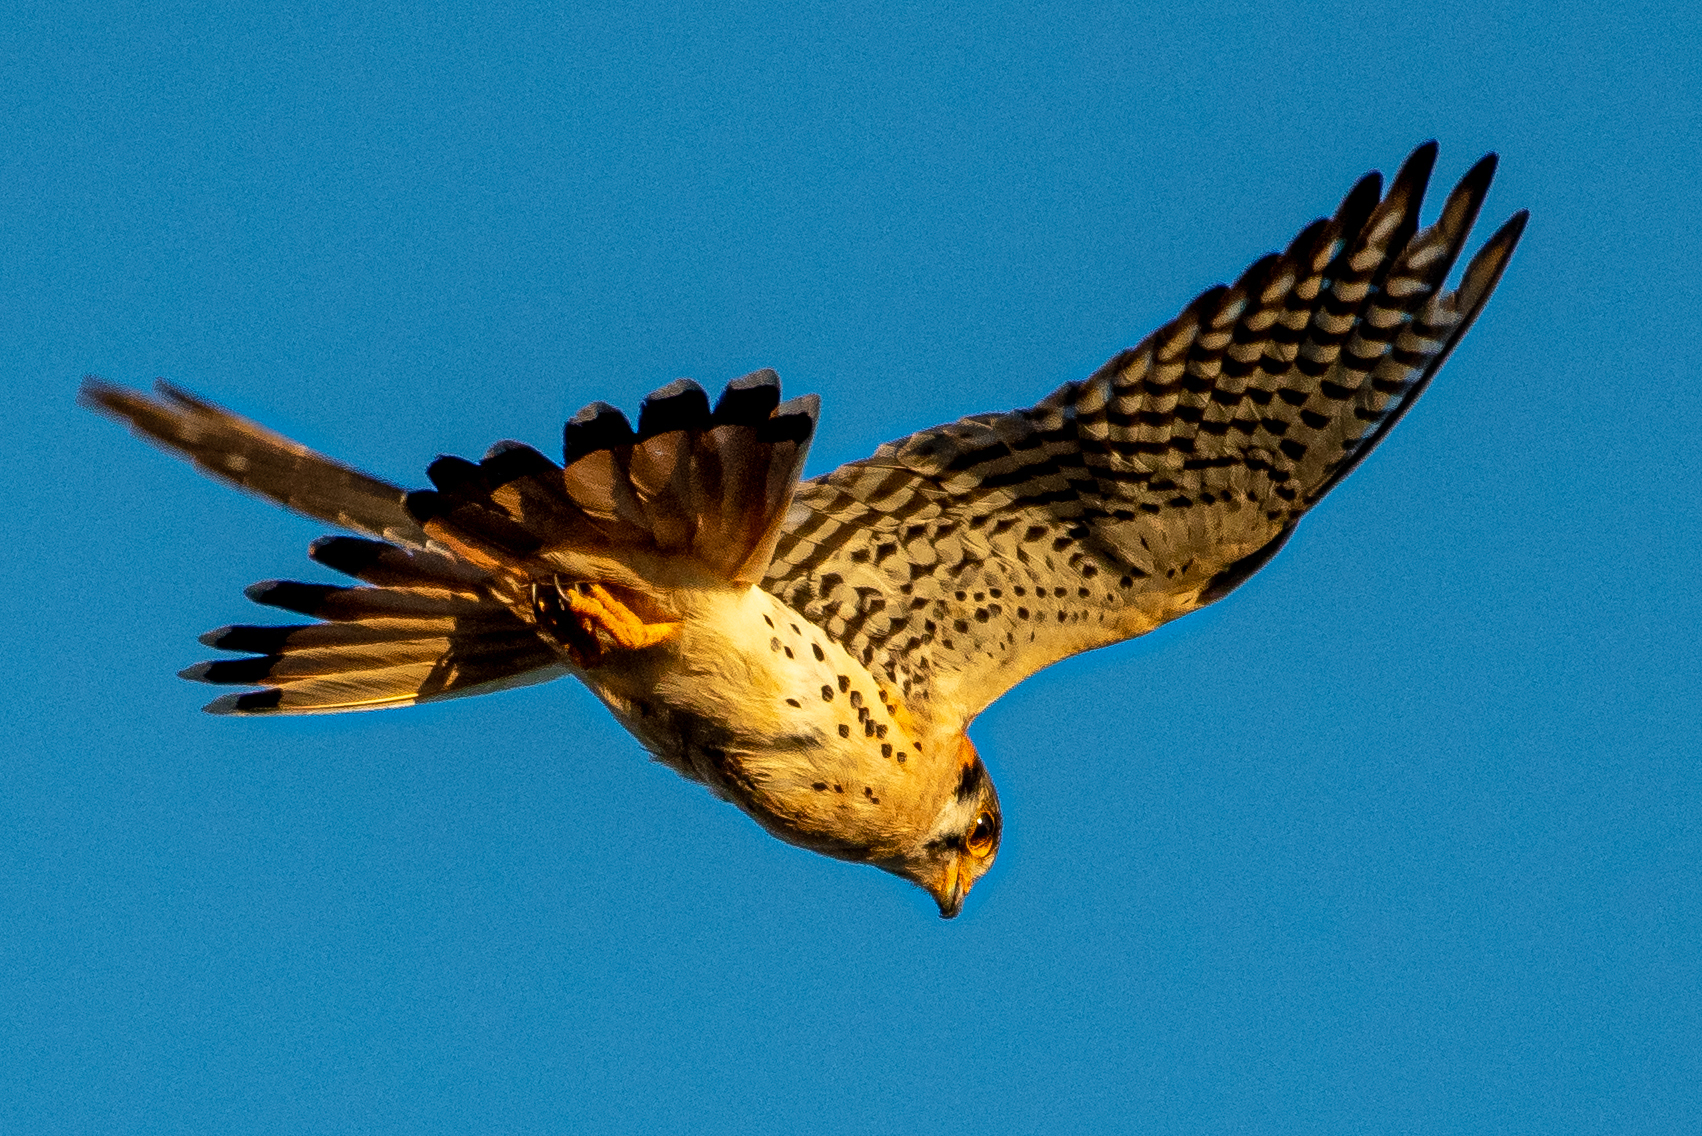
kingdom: Animalia
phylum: Chordata
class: Aves
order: Falconiformes
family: Falconidae
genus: Falco
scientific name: Falco sparverius
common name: American kestrel
